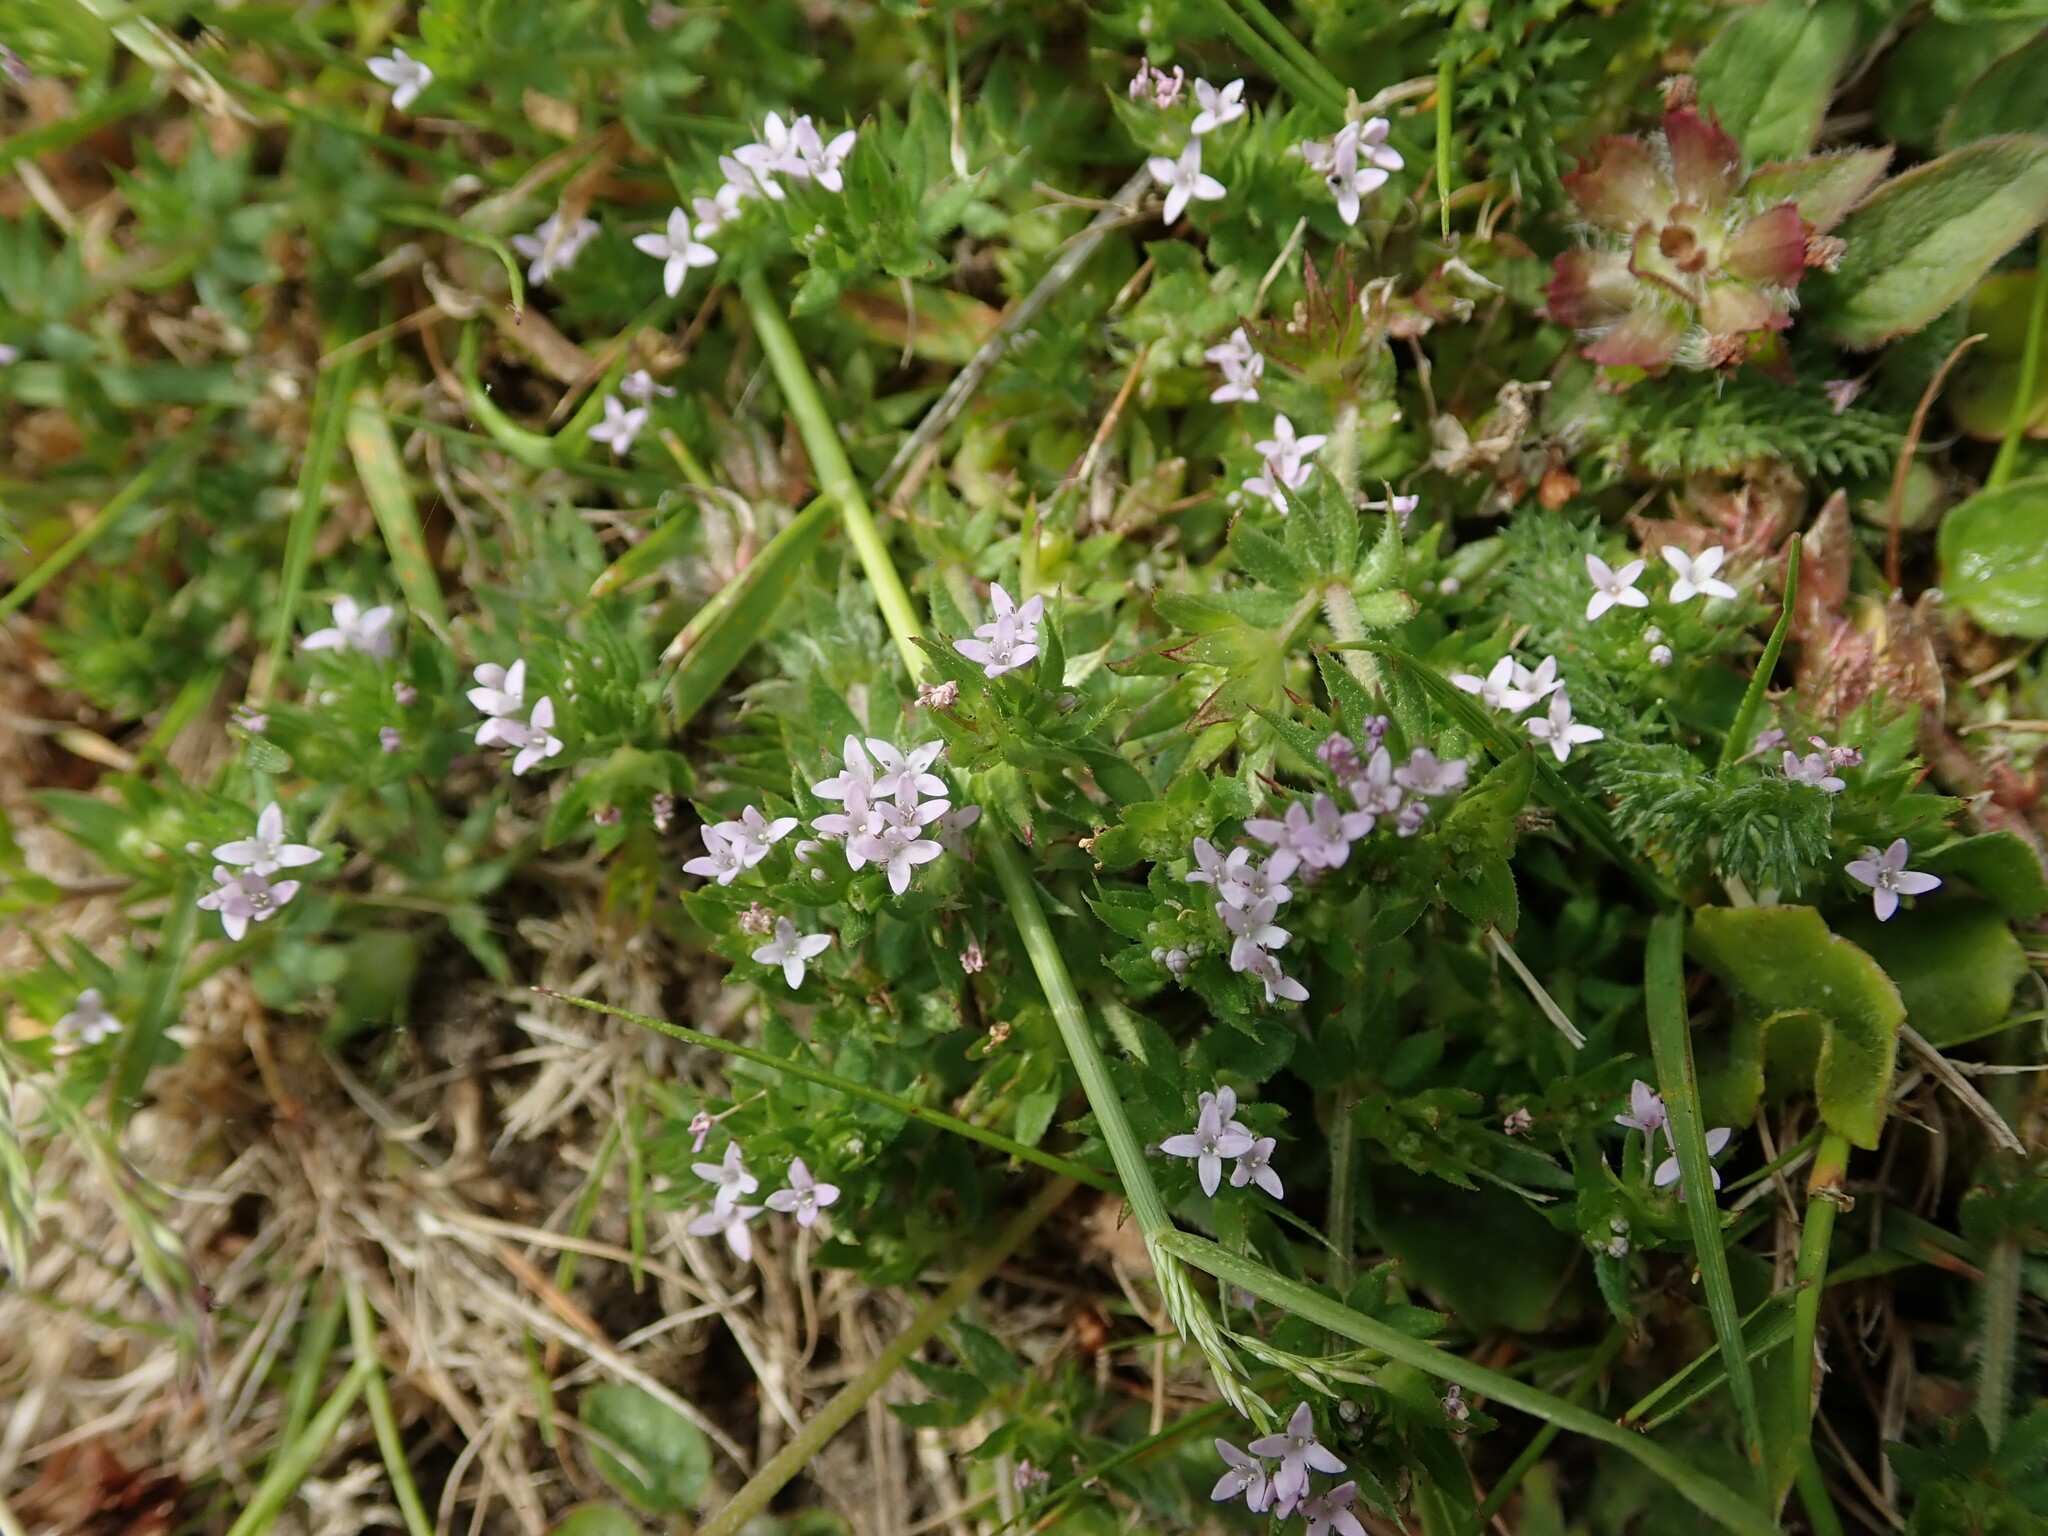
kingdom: Plantae
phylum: Tracheophyta
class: Magnoliopsida
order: Gentianales
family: Rubiaceae
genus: Sherardia
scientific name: Sherardia arvensis
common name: Field madder
